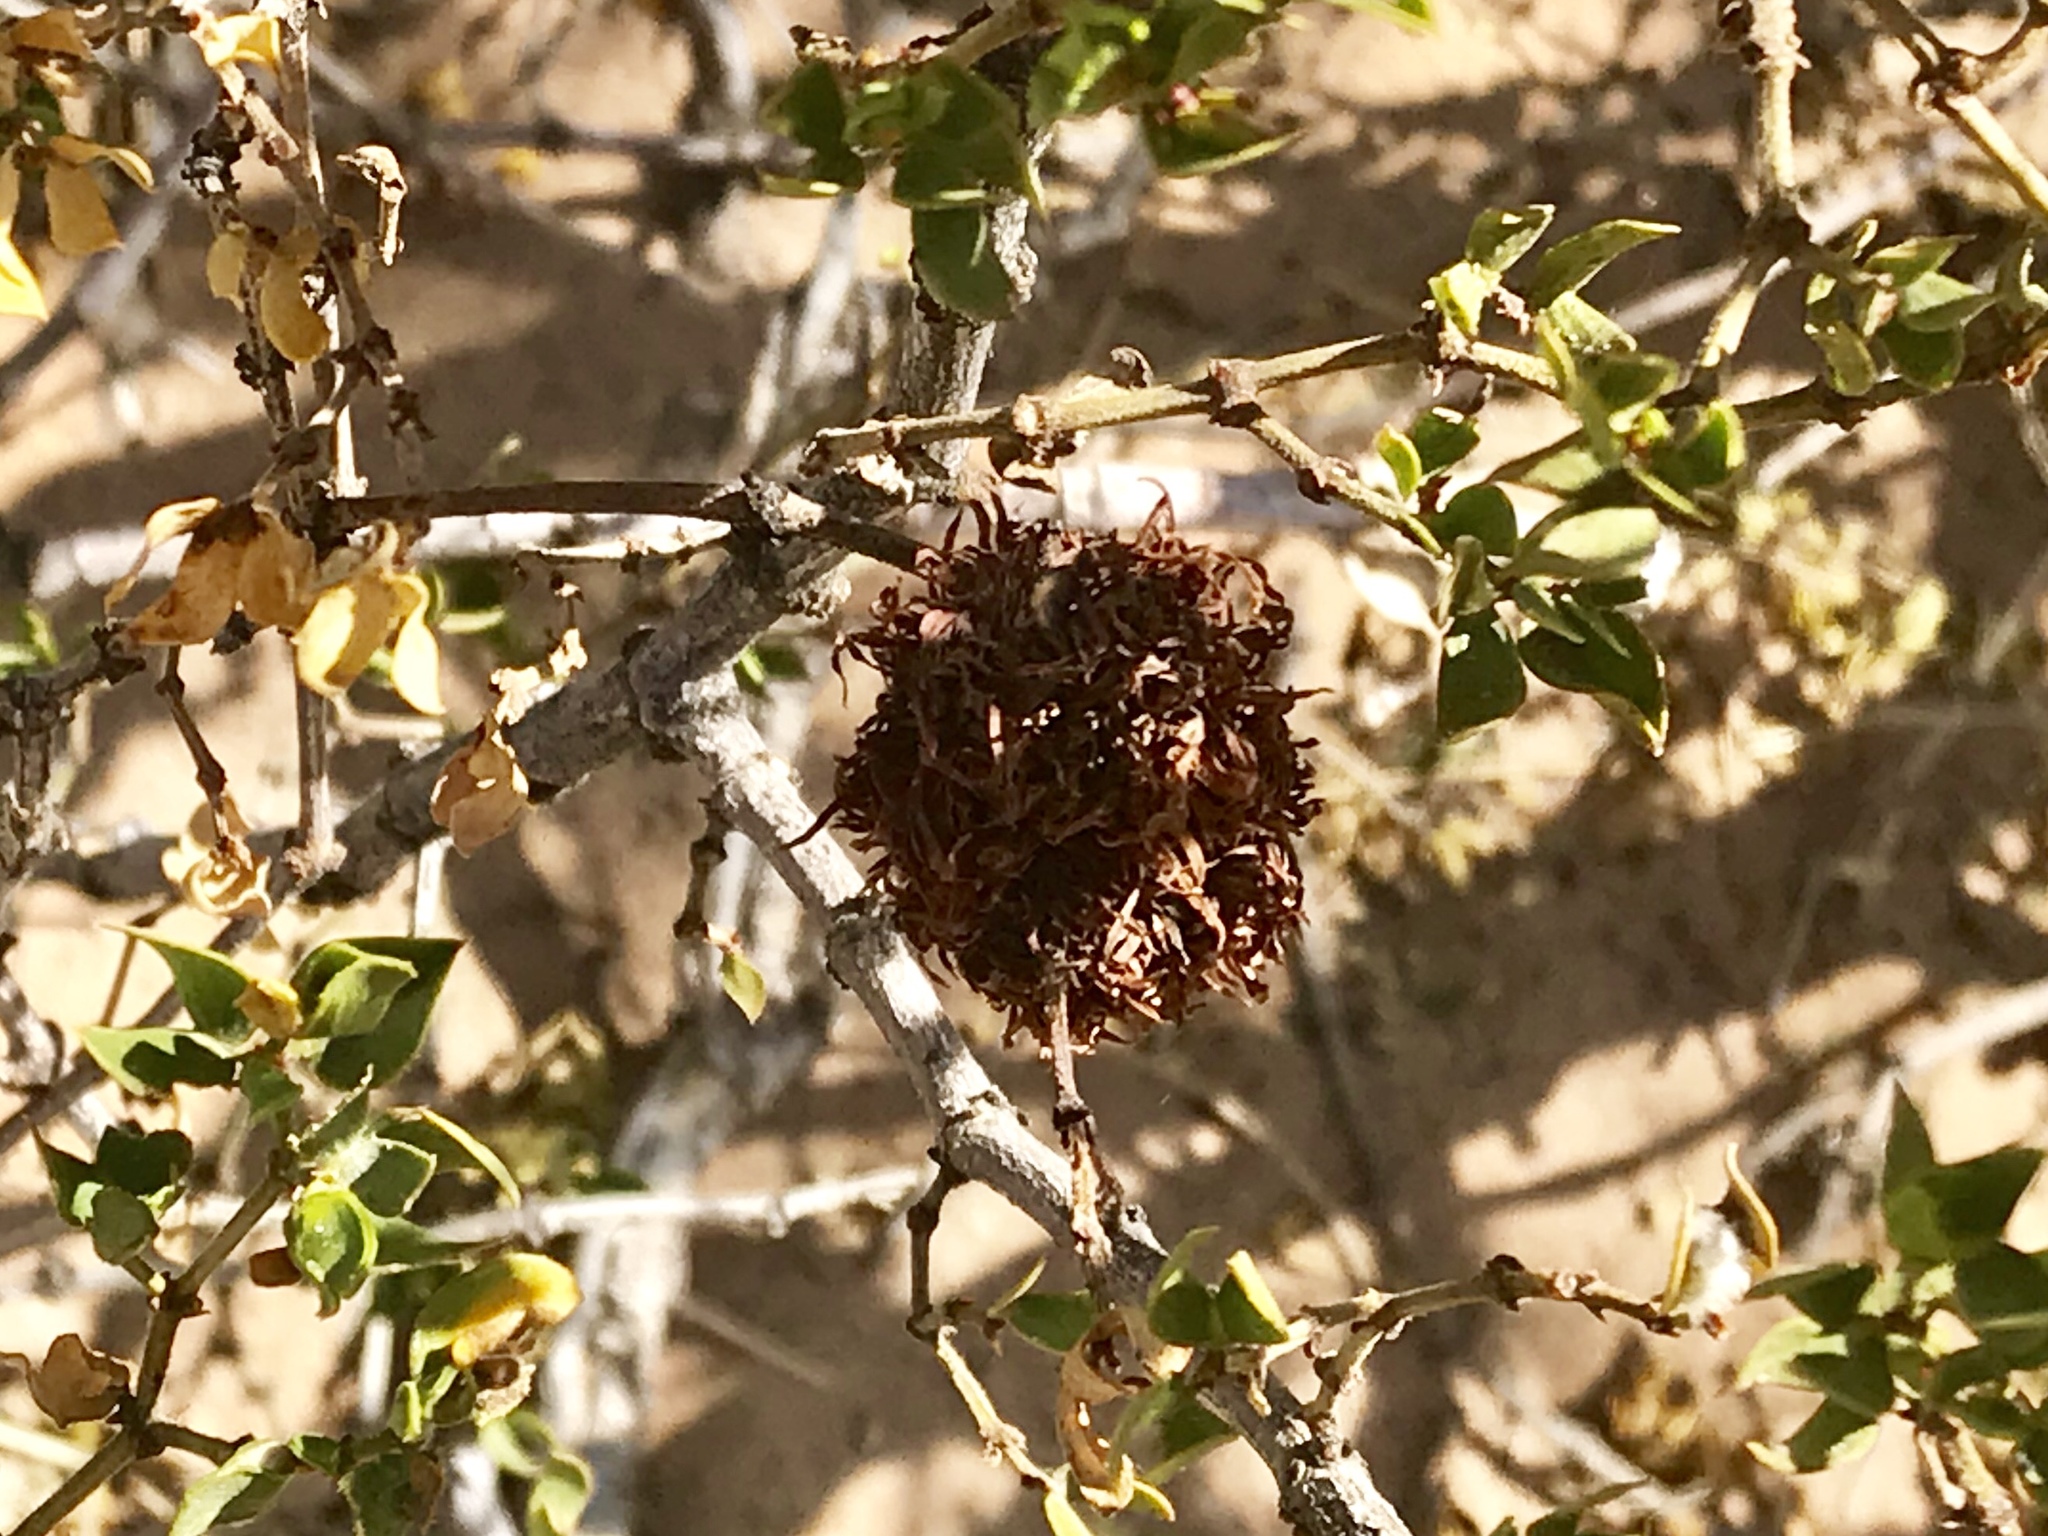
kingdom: Animalia
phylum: Arthropoda
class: Insecta
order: Diptera
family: Cecidomyiidae
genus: Asphondylia
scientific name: Asphondylia auripila
